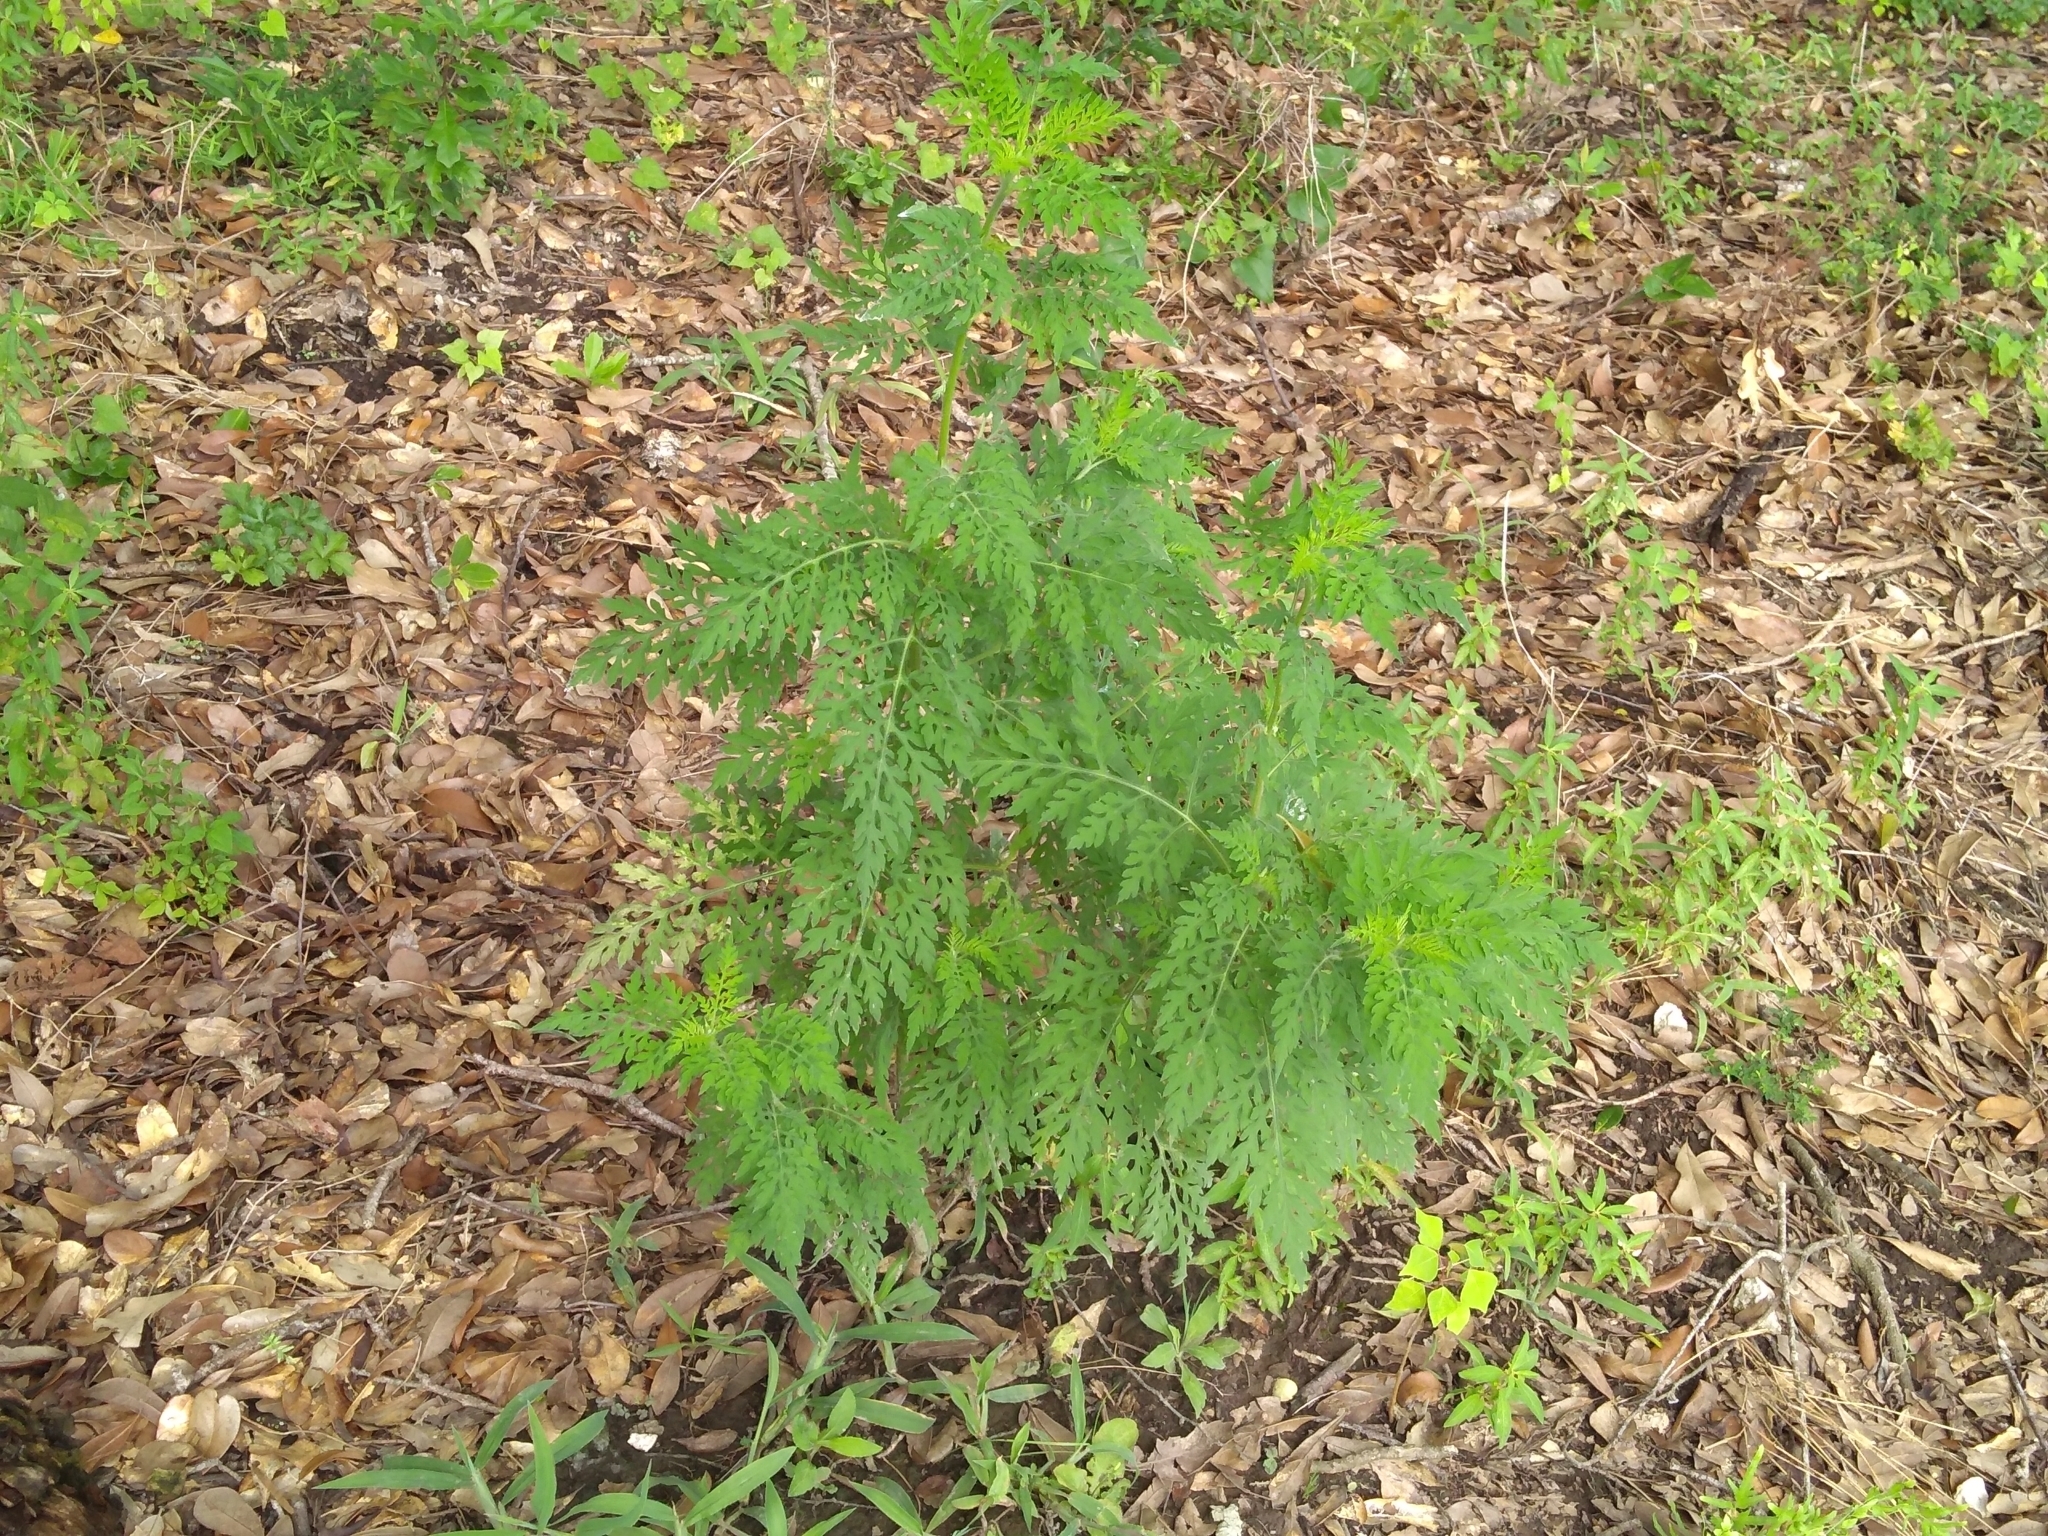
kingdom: Plantae
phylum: Tracheophyta
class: Magnoliopsida
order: Asterales
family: Asteraceae
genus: Ambrosia
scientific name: Ambrosia artemisiifolia
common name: Annual ragweed
